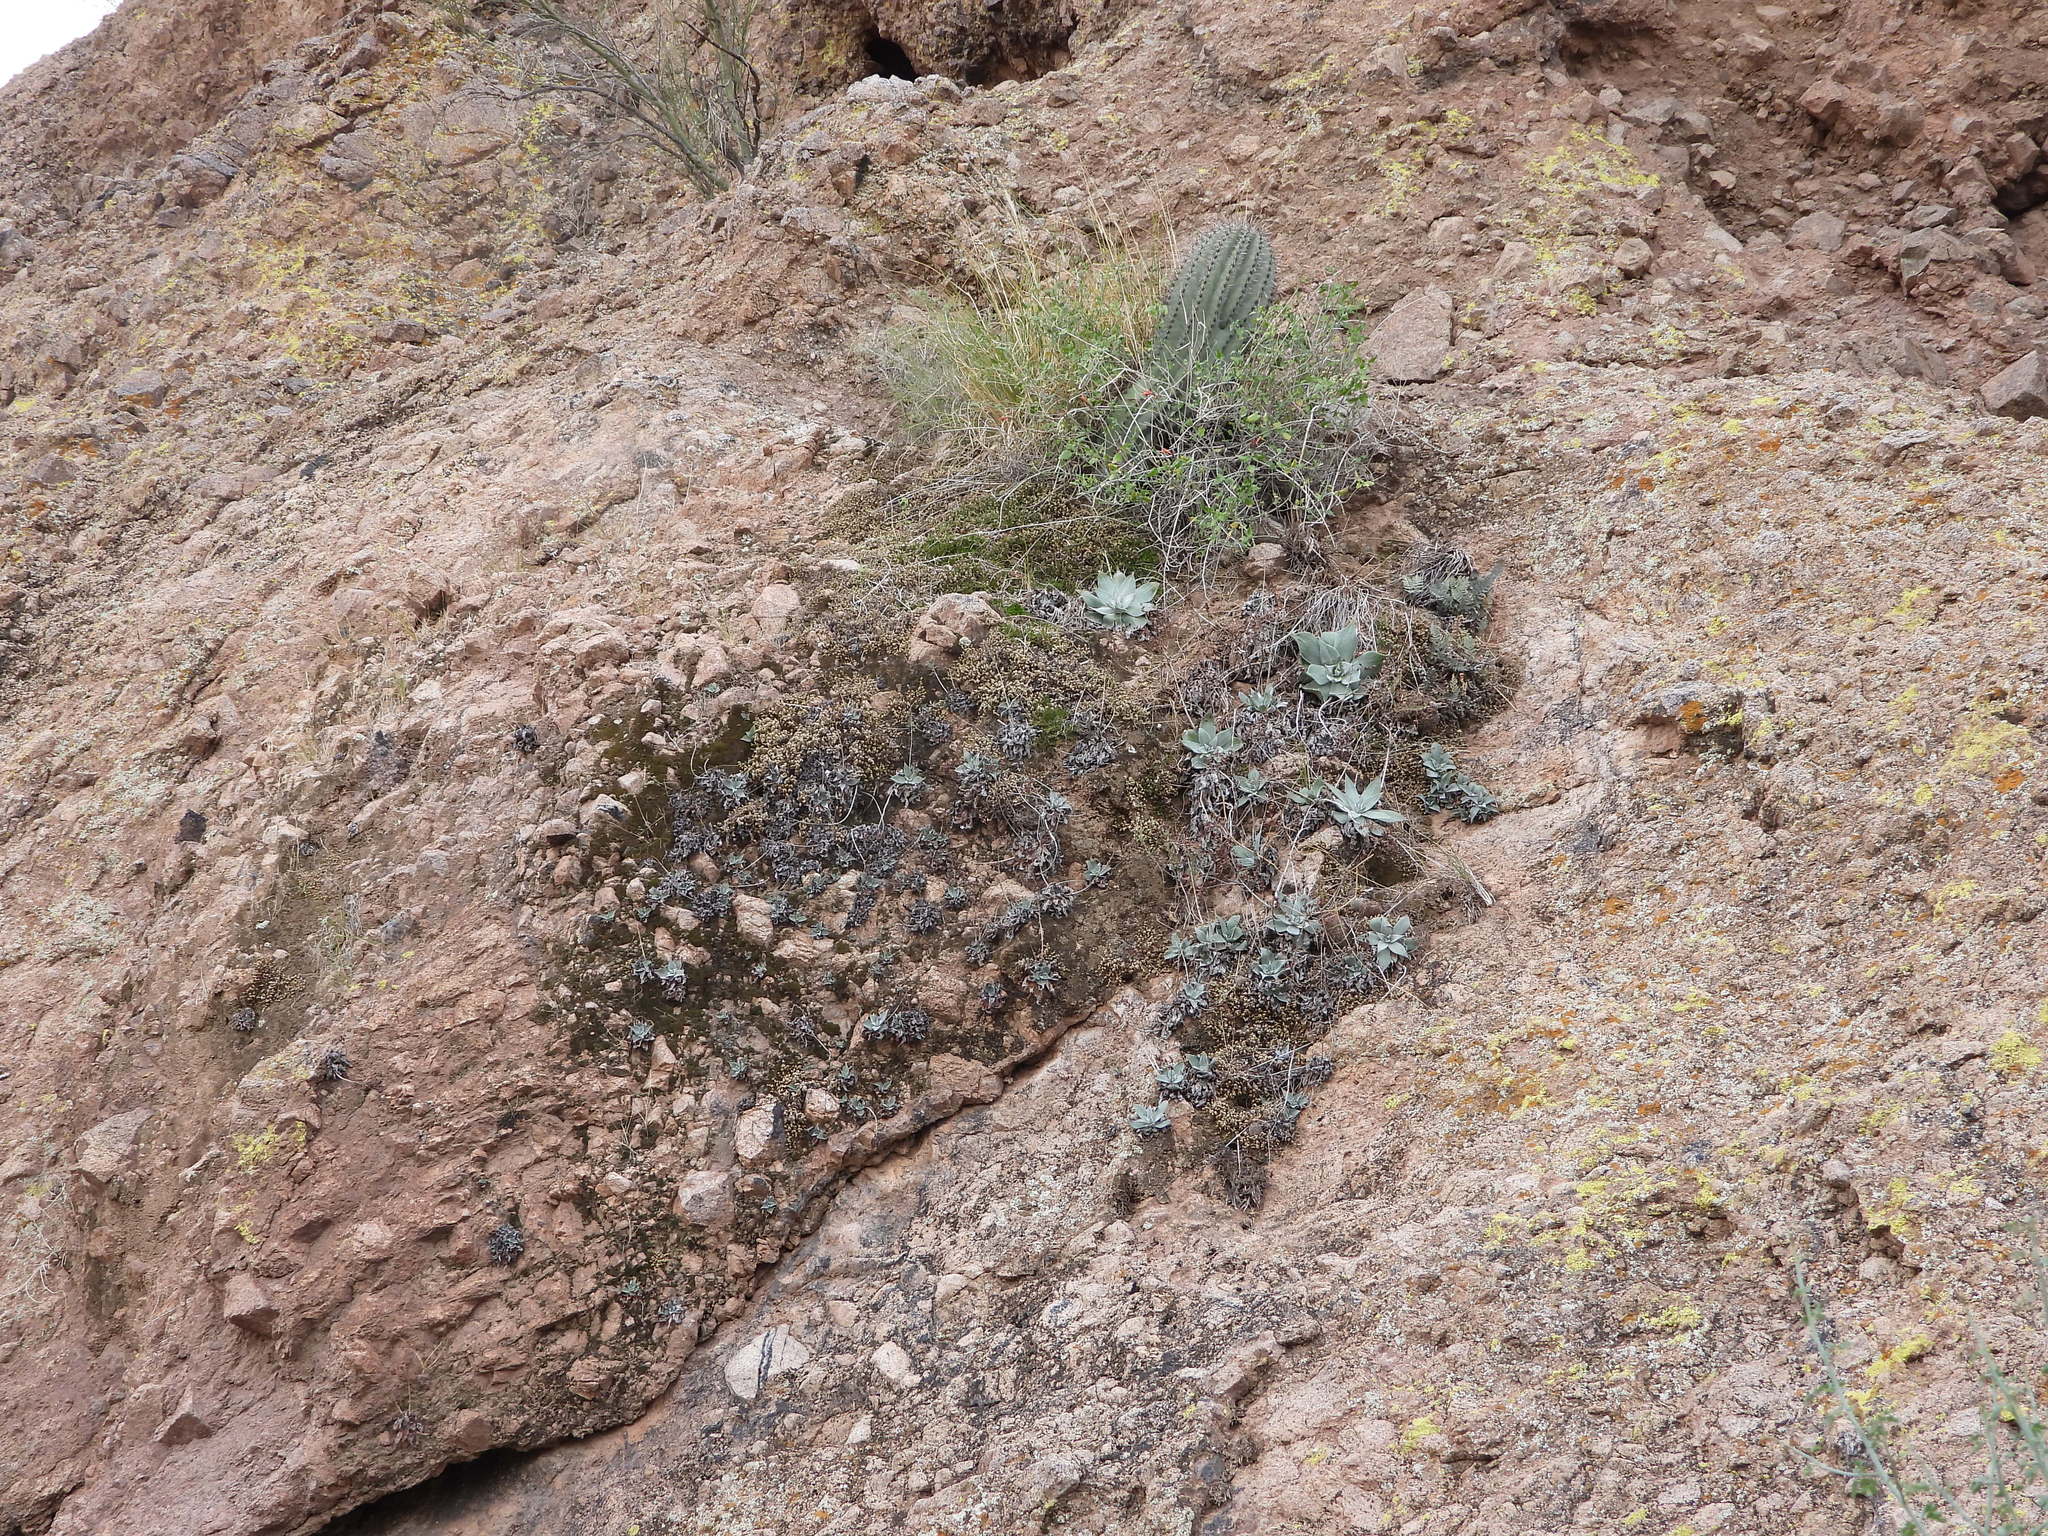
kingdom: Plantae
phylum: Tracheophyta
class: Magnoliopsida
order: Saxifragales
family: Crassulaceae
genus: Dudleya
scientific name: Dudleya arizonica
